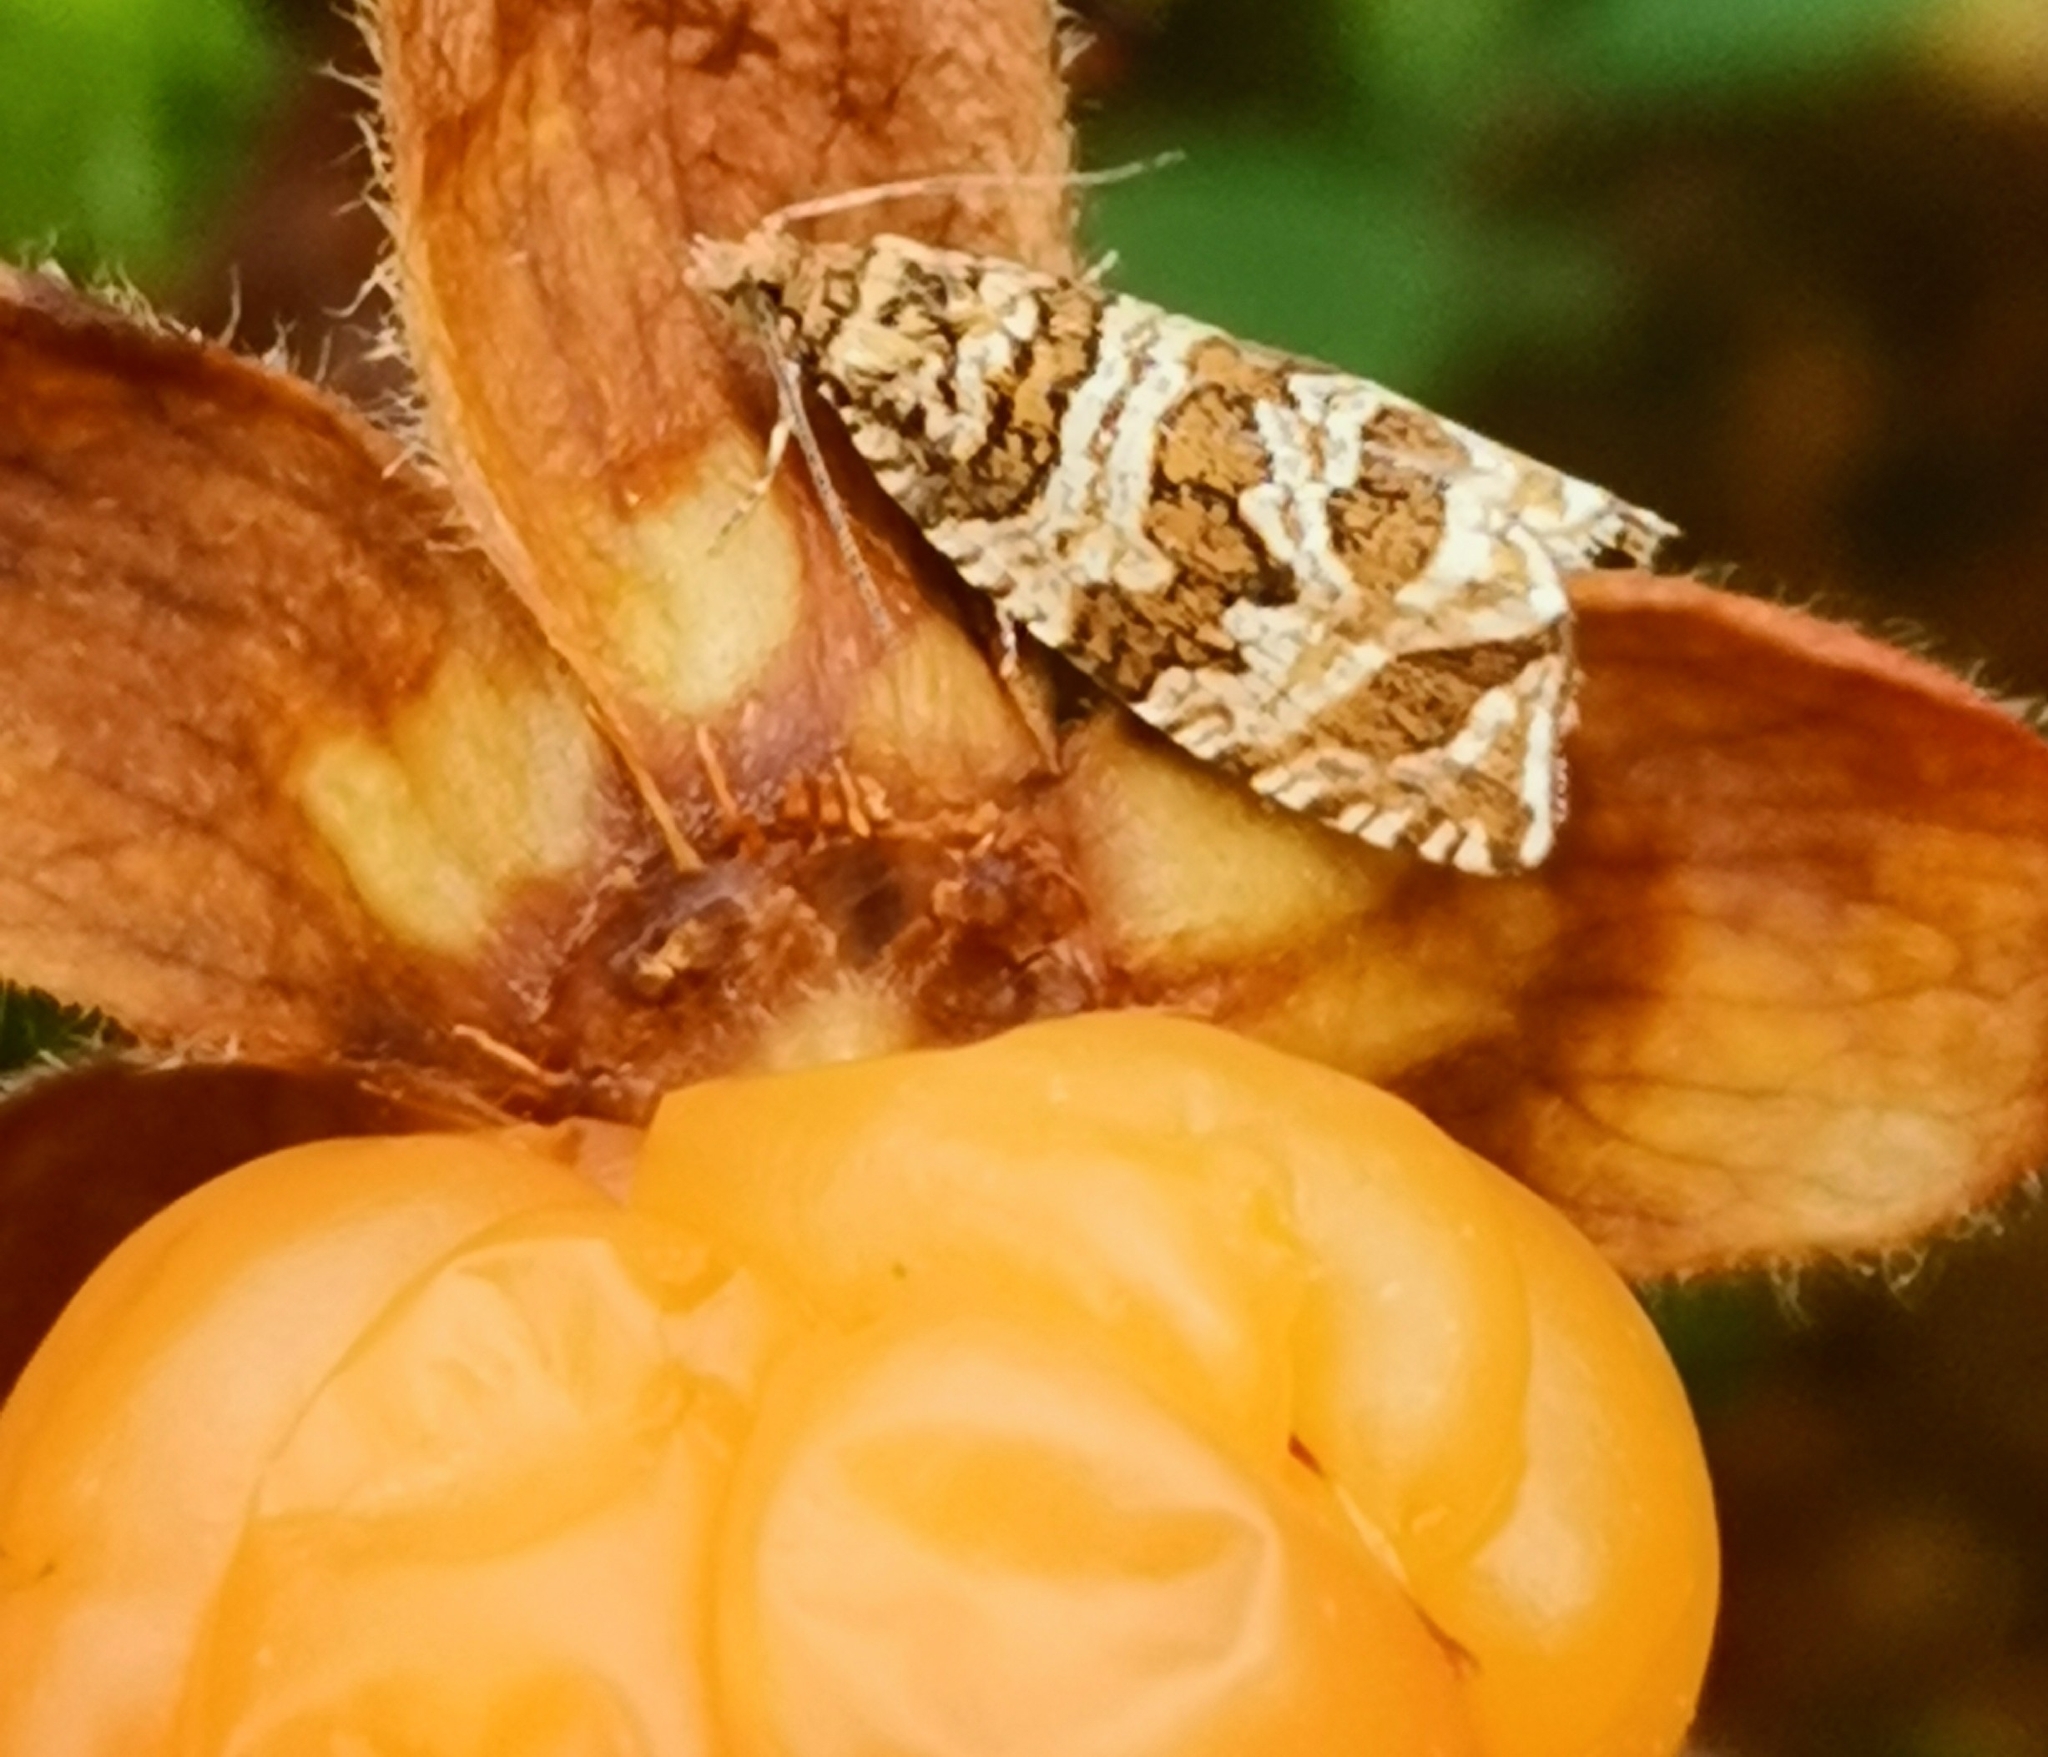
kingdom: Animalia
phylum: Arthropoda
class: Insecta
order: Lepidoptera
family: Tortricidae
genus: Syricoris
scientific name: Syricoris rivulana
